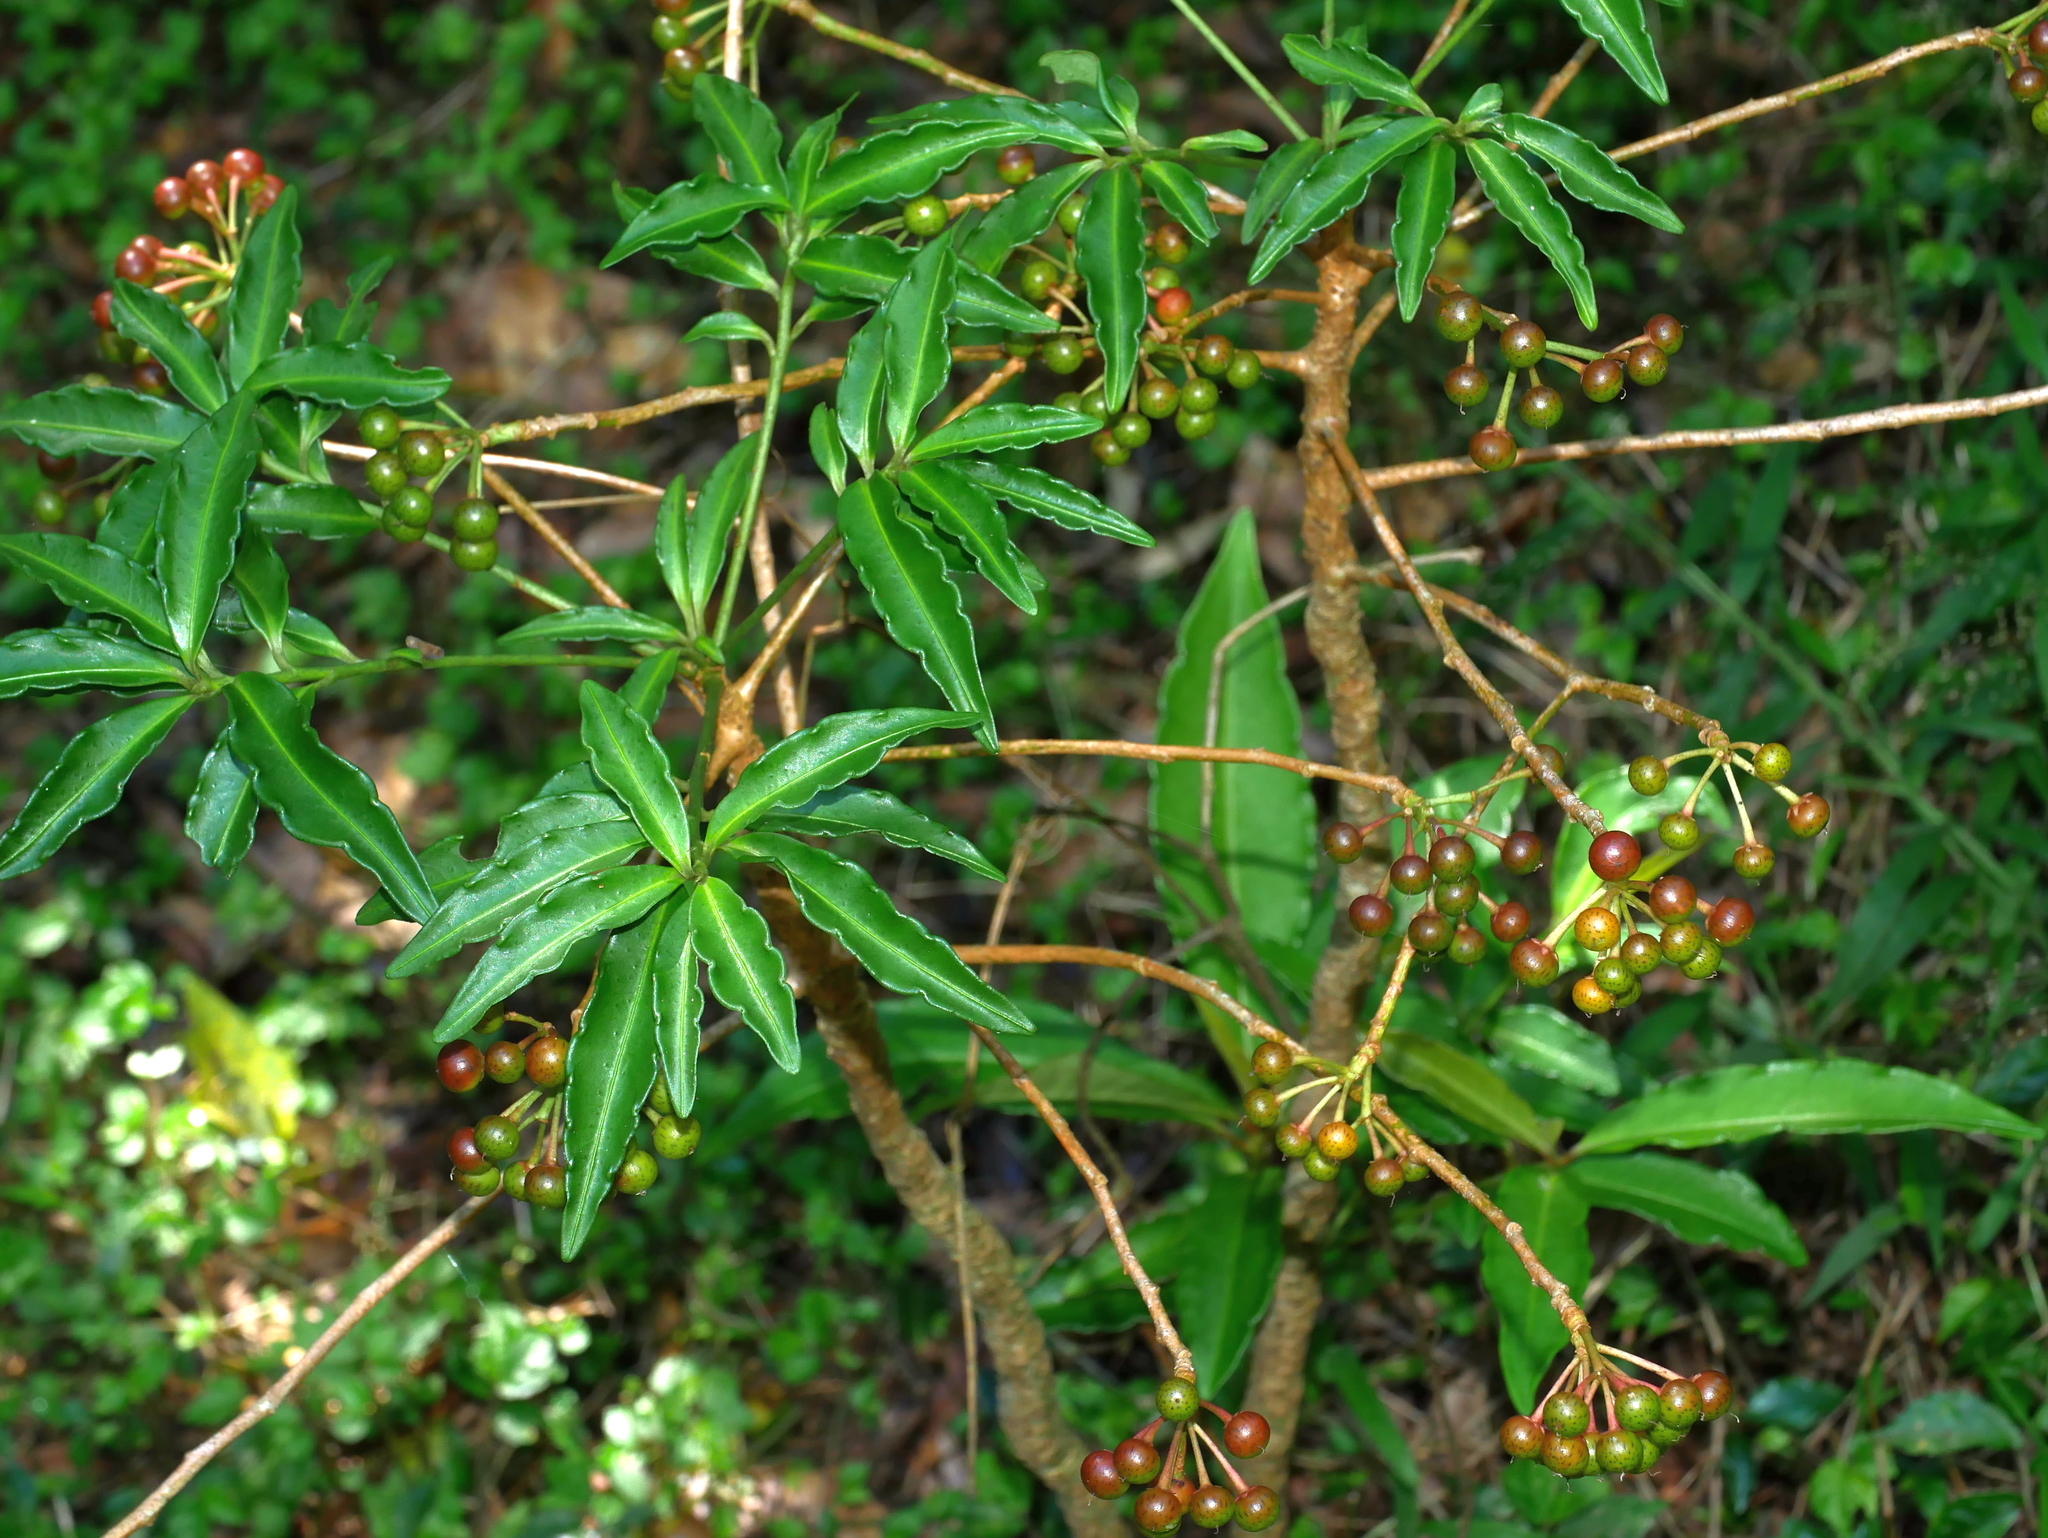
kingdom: Plantae
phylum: Tracheophyta
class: Magnoliopsida
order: Ericales
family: Primulaceae
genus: Ardisia
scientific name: Ardisia crenata
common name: Hen's eyes
